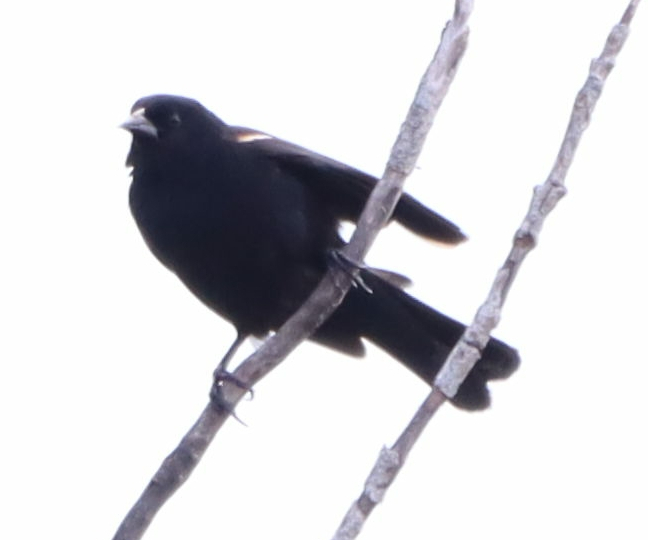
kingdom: Animalia
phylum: Chordata
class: Aves
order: Passeriformes
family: Icteridae
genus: Agelaius
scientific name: Agelaius phoeniceus
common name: Red-winged blackbird
